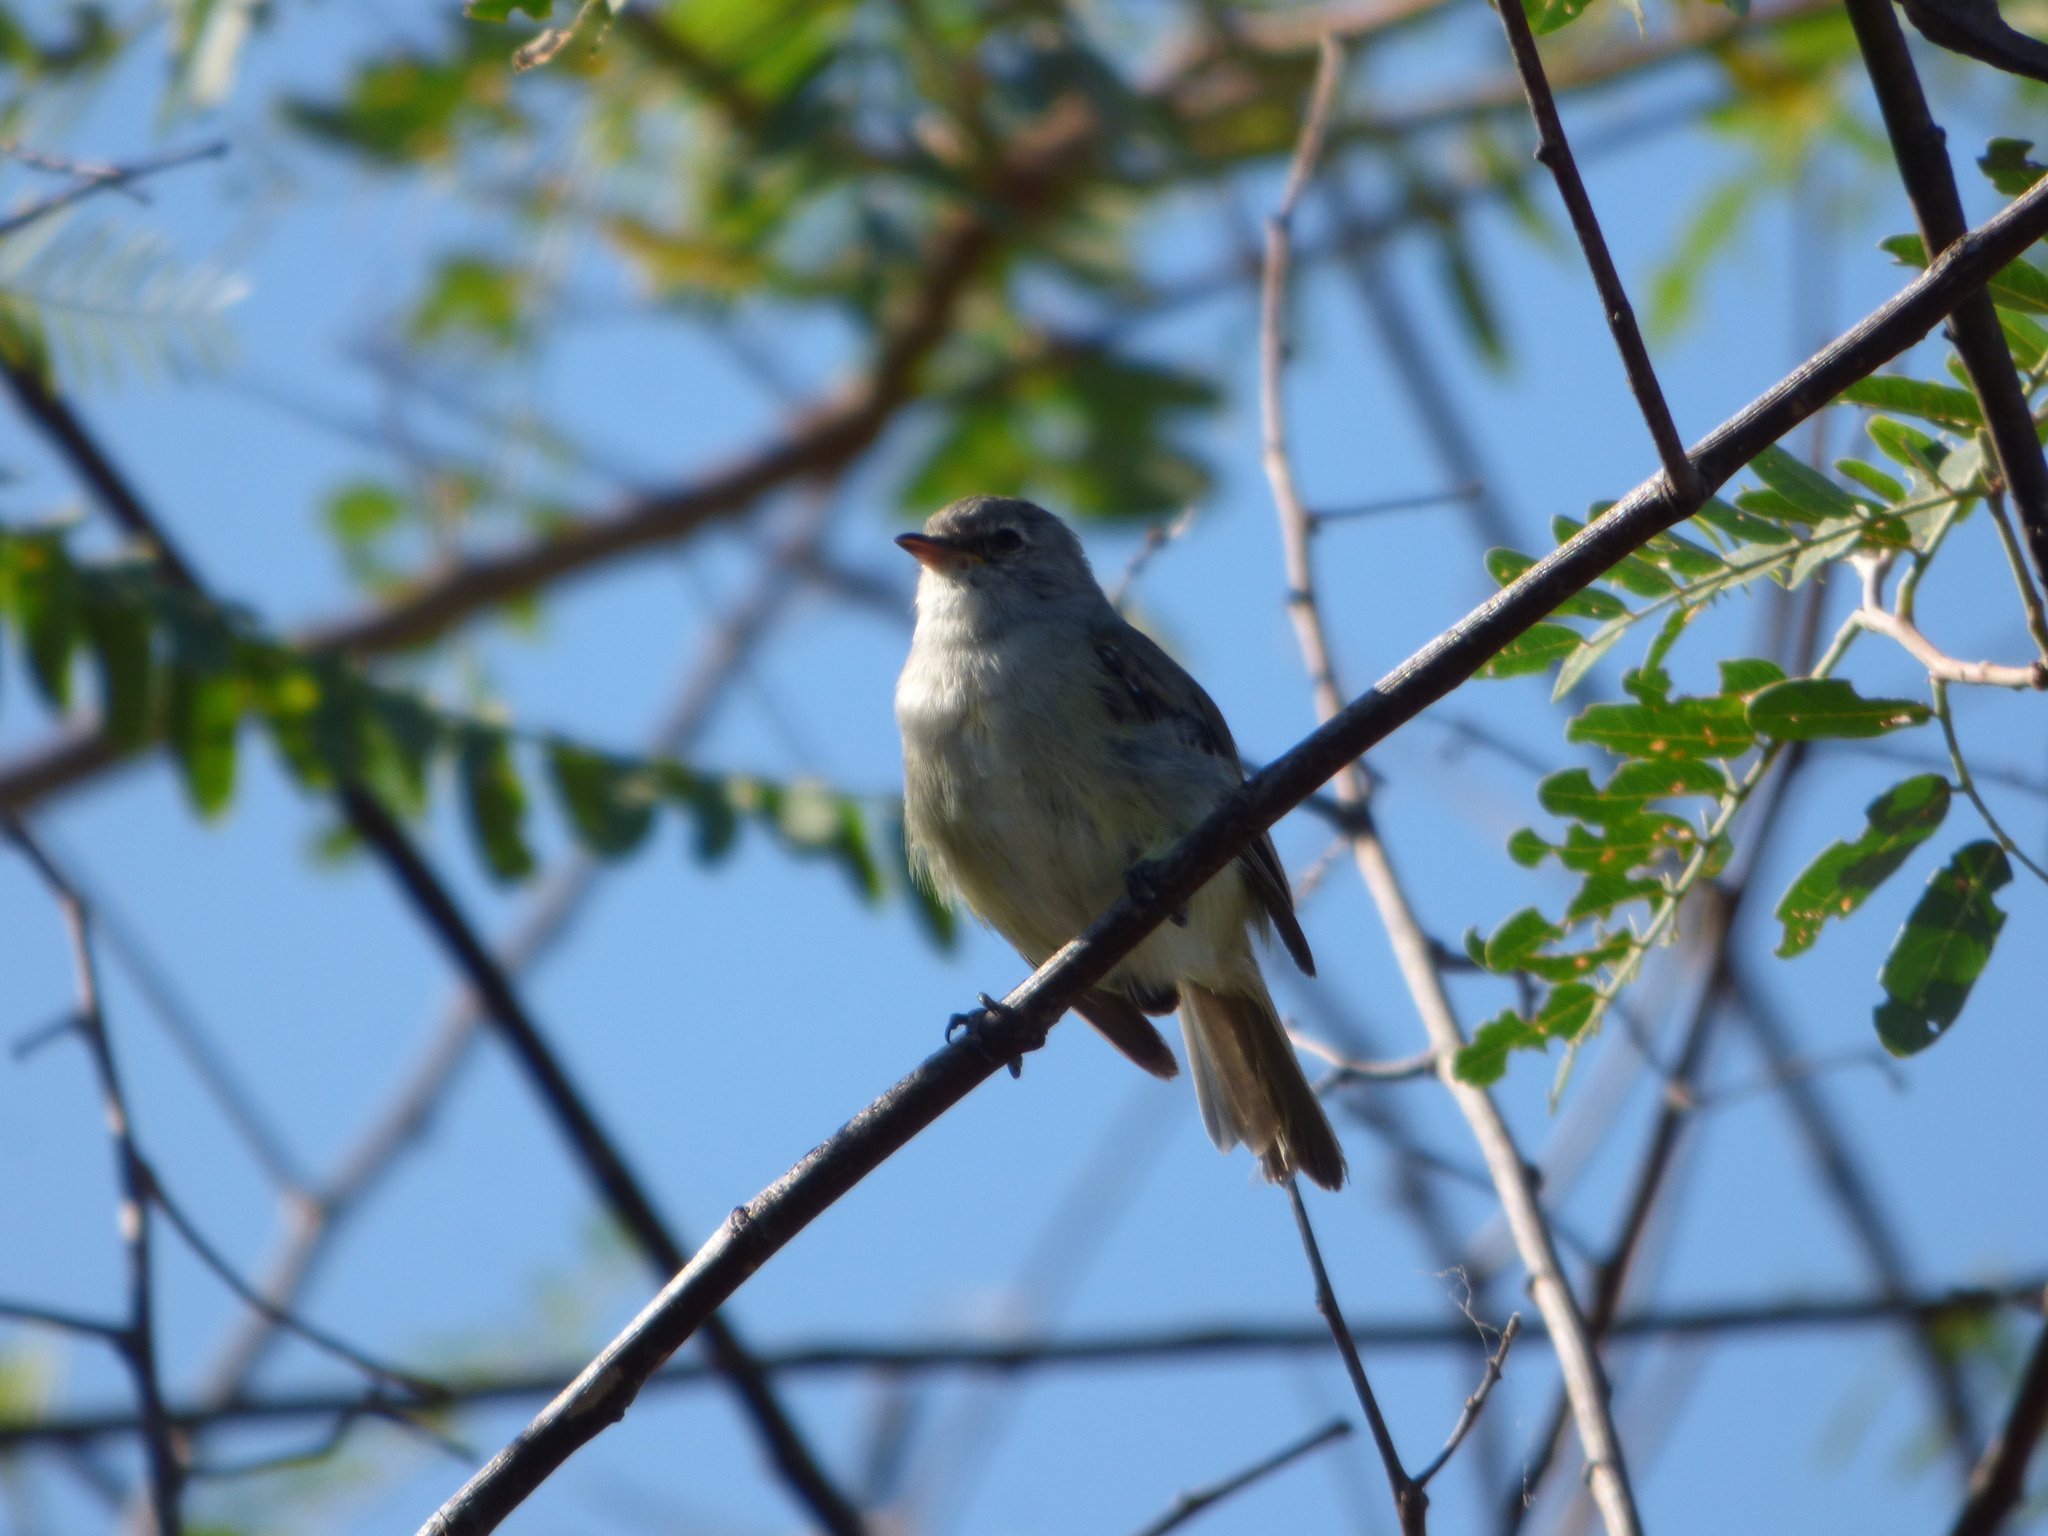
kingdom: Animalia
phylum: Chordata
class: Aves
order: Passeriformes
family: Tyrannidae
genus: Camptostoma
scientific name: Camptostoma obsoletum
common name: Southern beardless-tyrannulet
